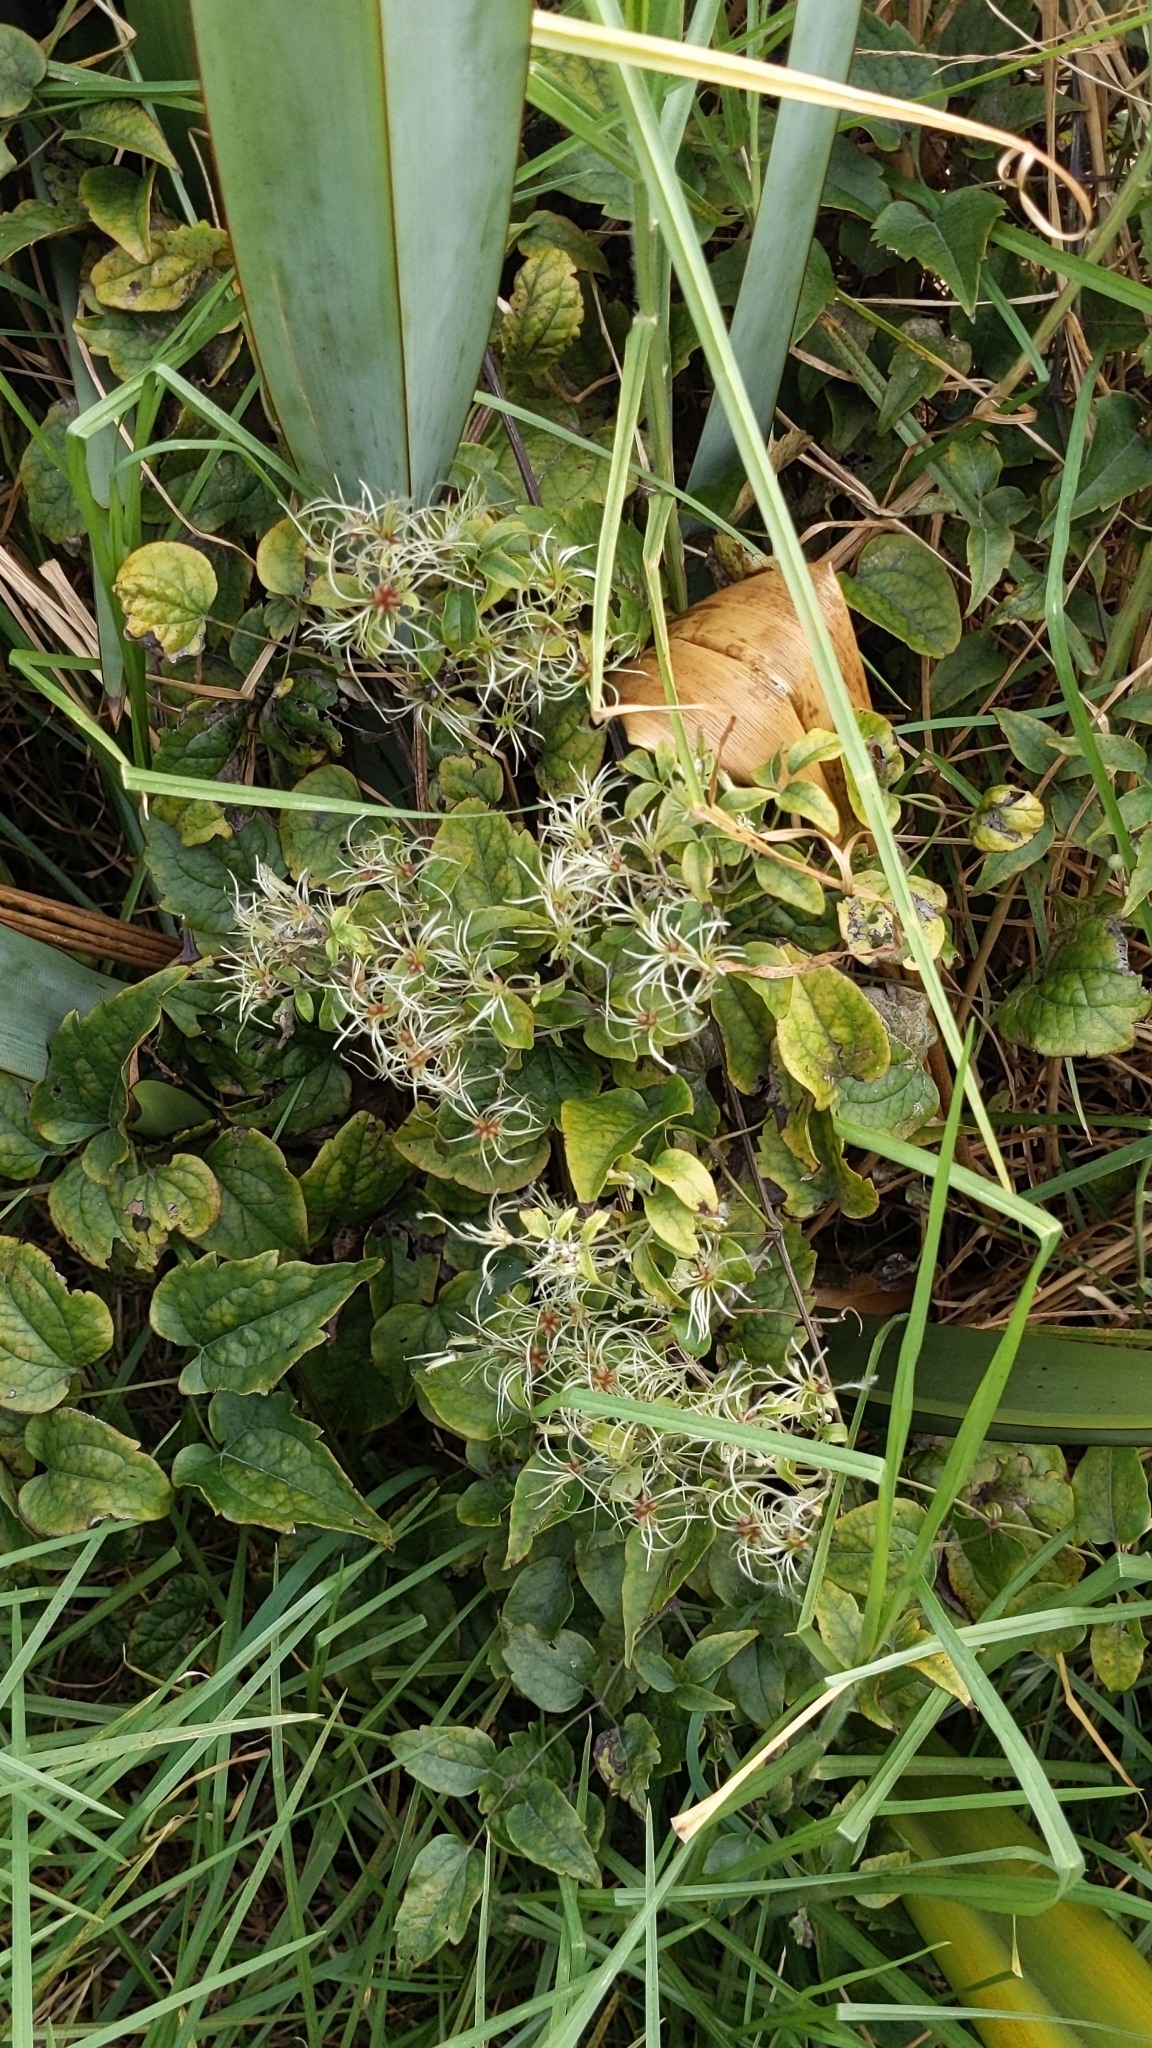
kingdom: Plantae
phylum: Tracheophyta
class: Magnoliopsida
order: Ranunculales
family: Ranunculaceae
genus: Clematis
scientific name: Clematis vitalba
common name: Evergreen clematis
